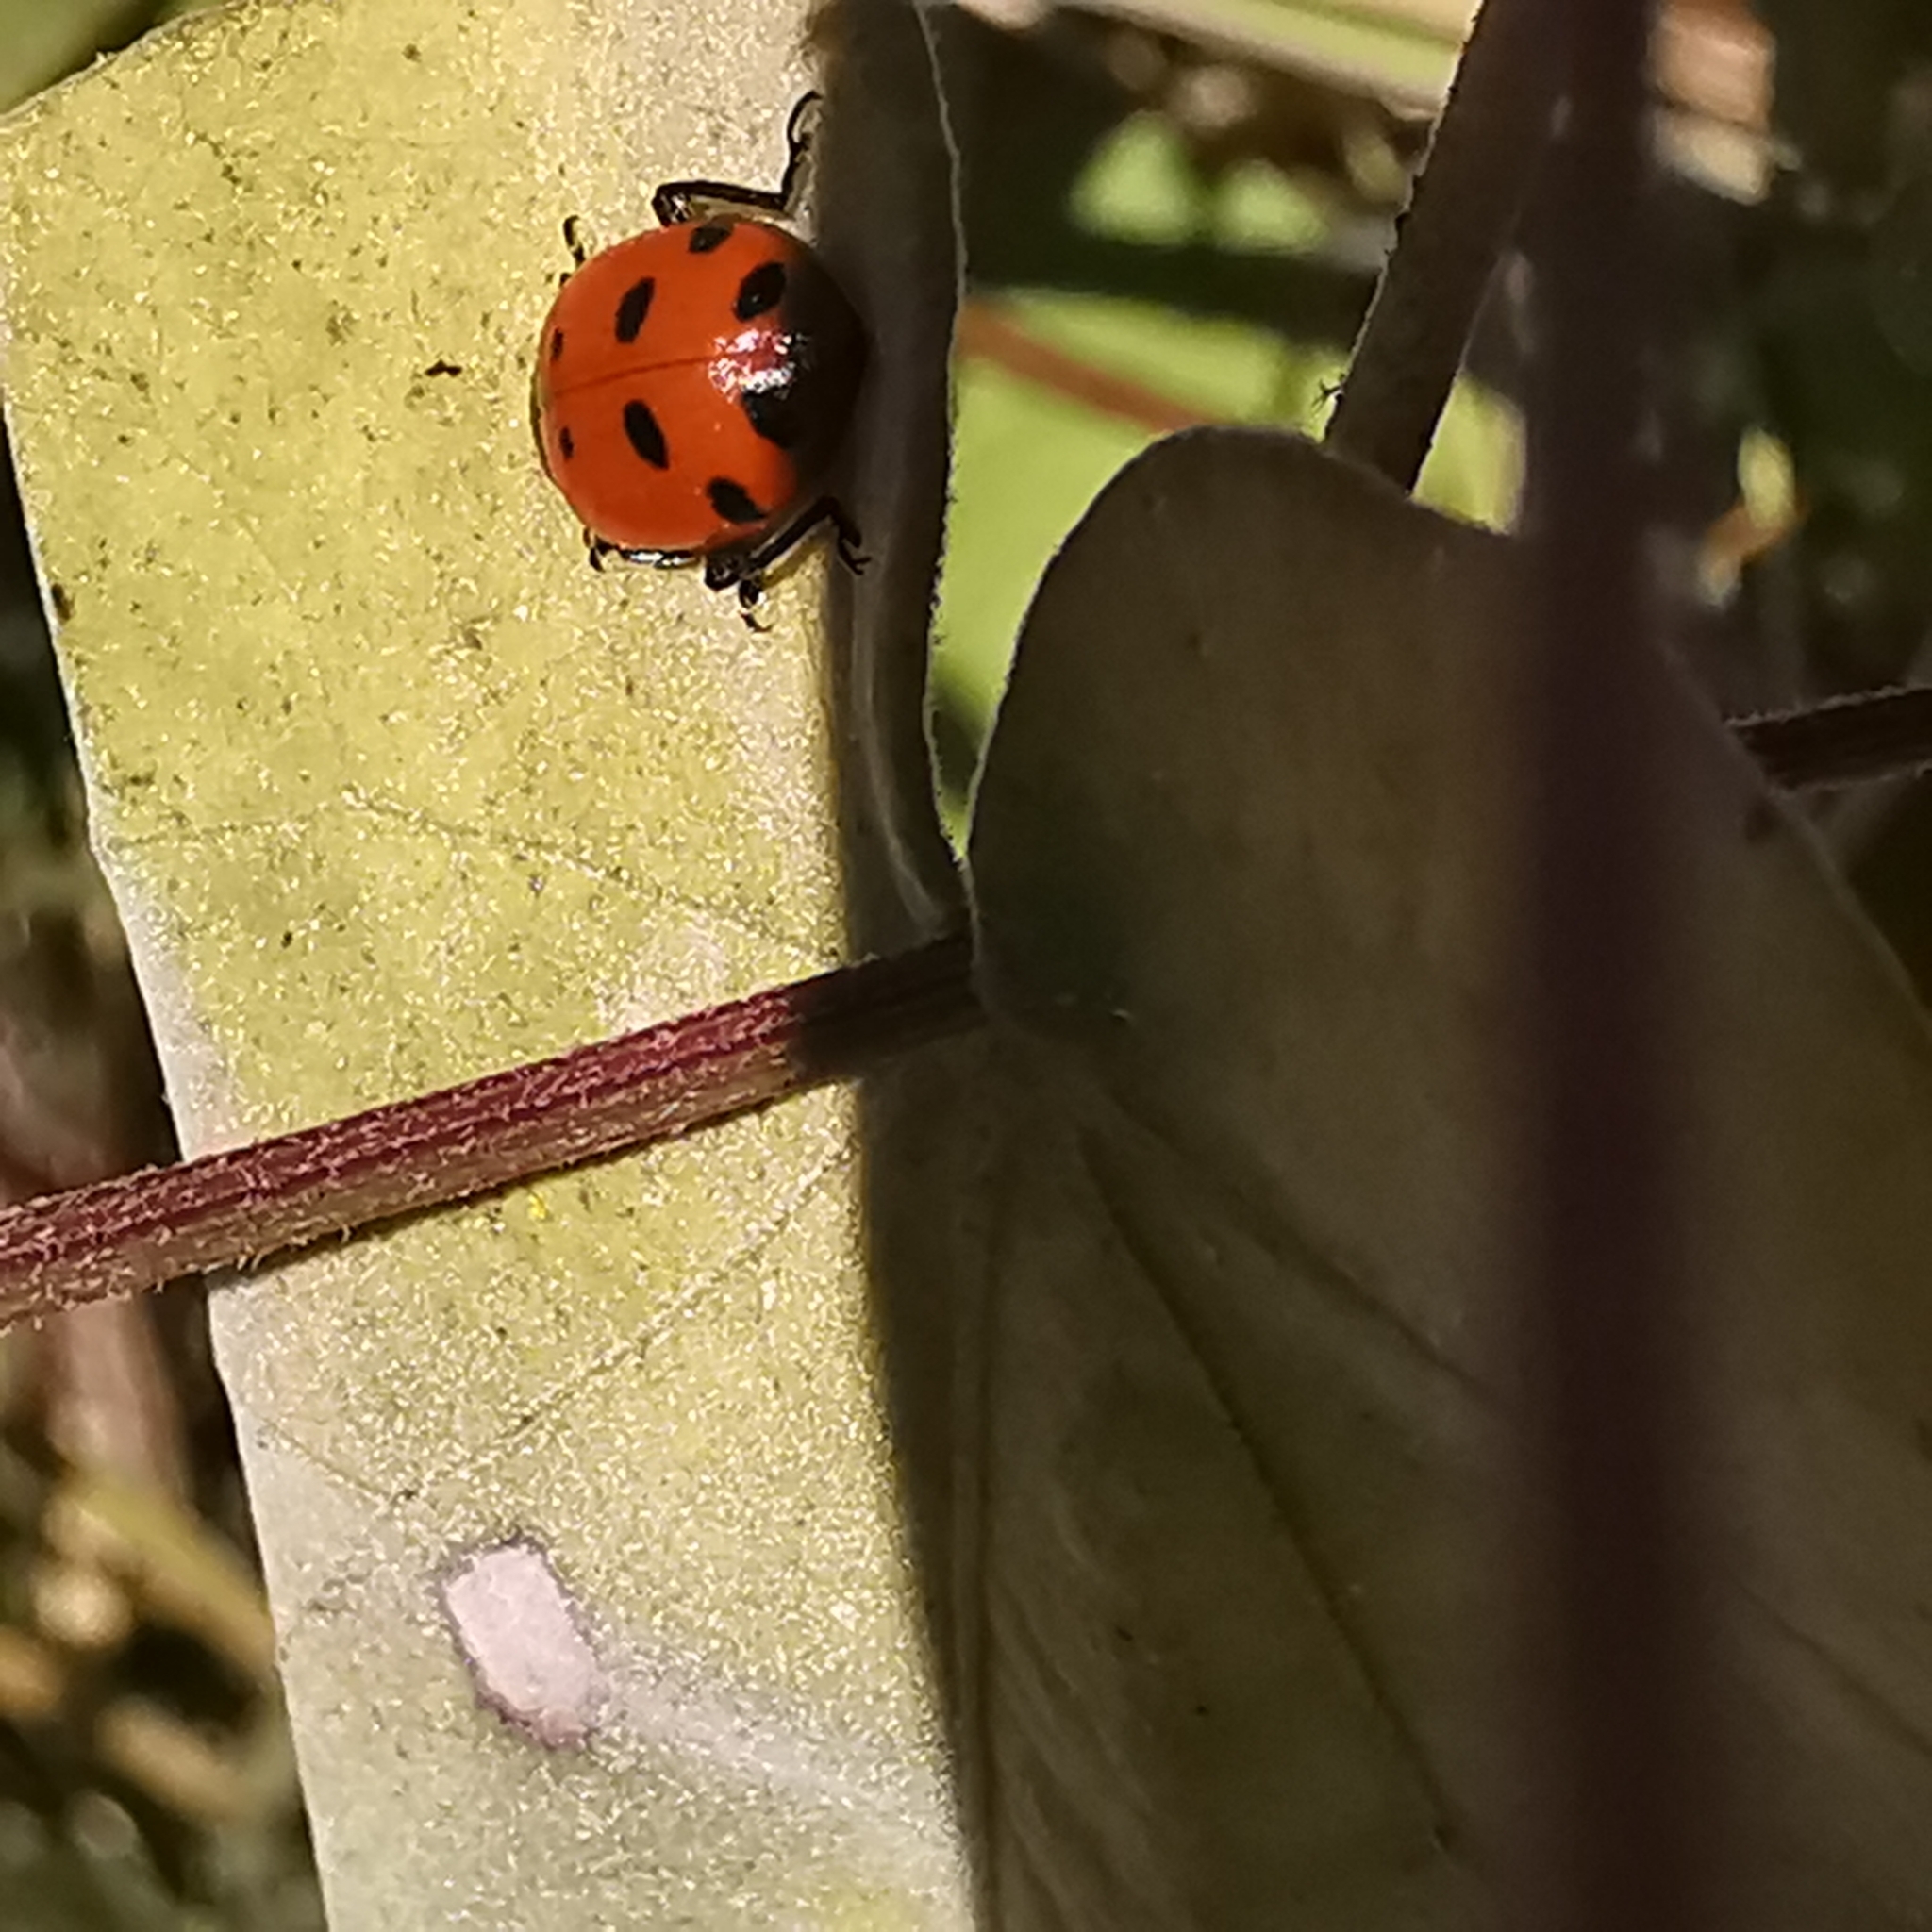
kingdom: Animalia
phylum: Arthropoda
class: Insecta
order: Coleoptera
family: Coccinellidae
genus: Hippodamia
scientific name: Hippodamia convergens
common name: Convergent lady beetle
